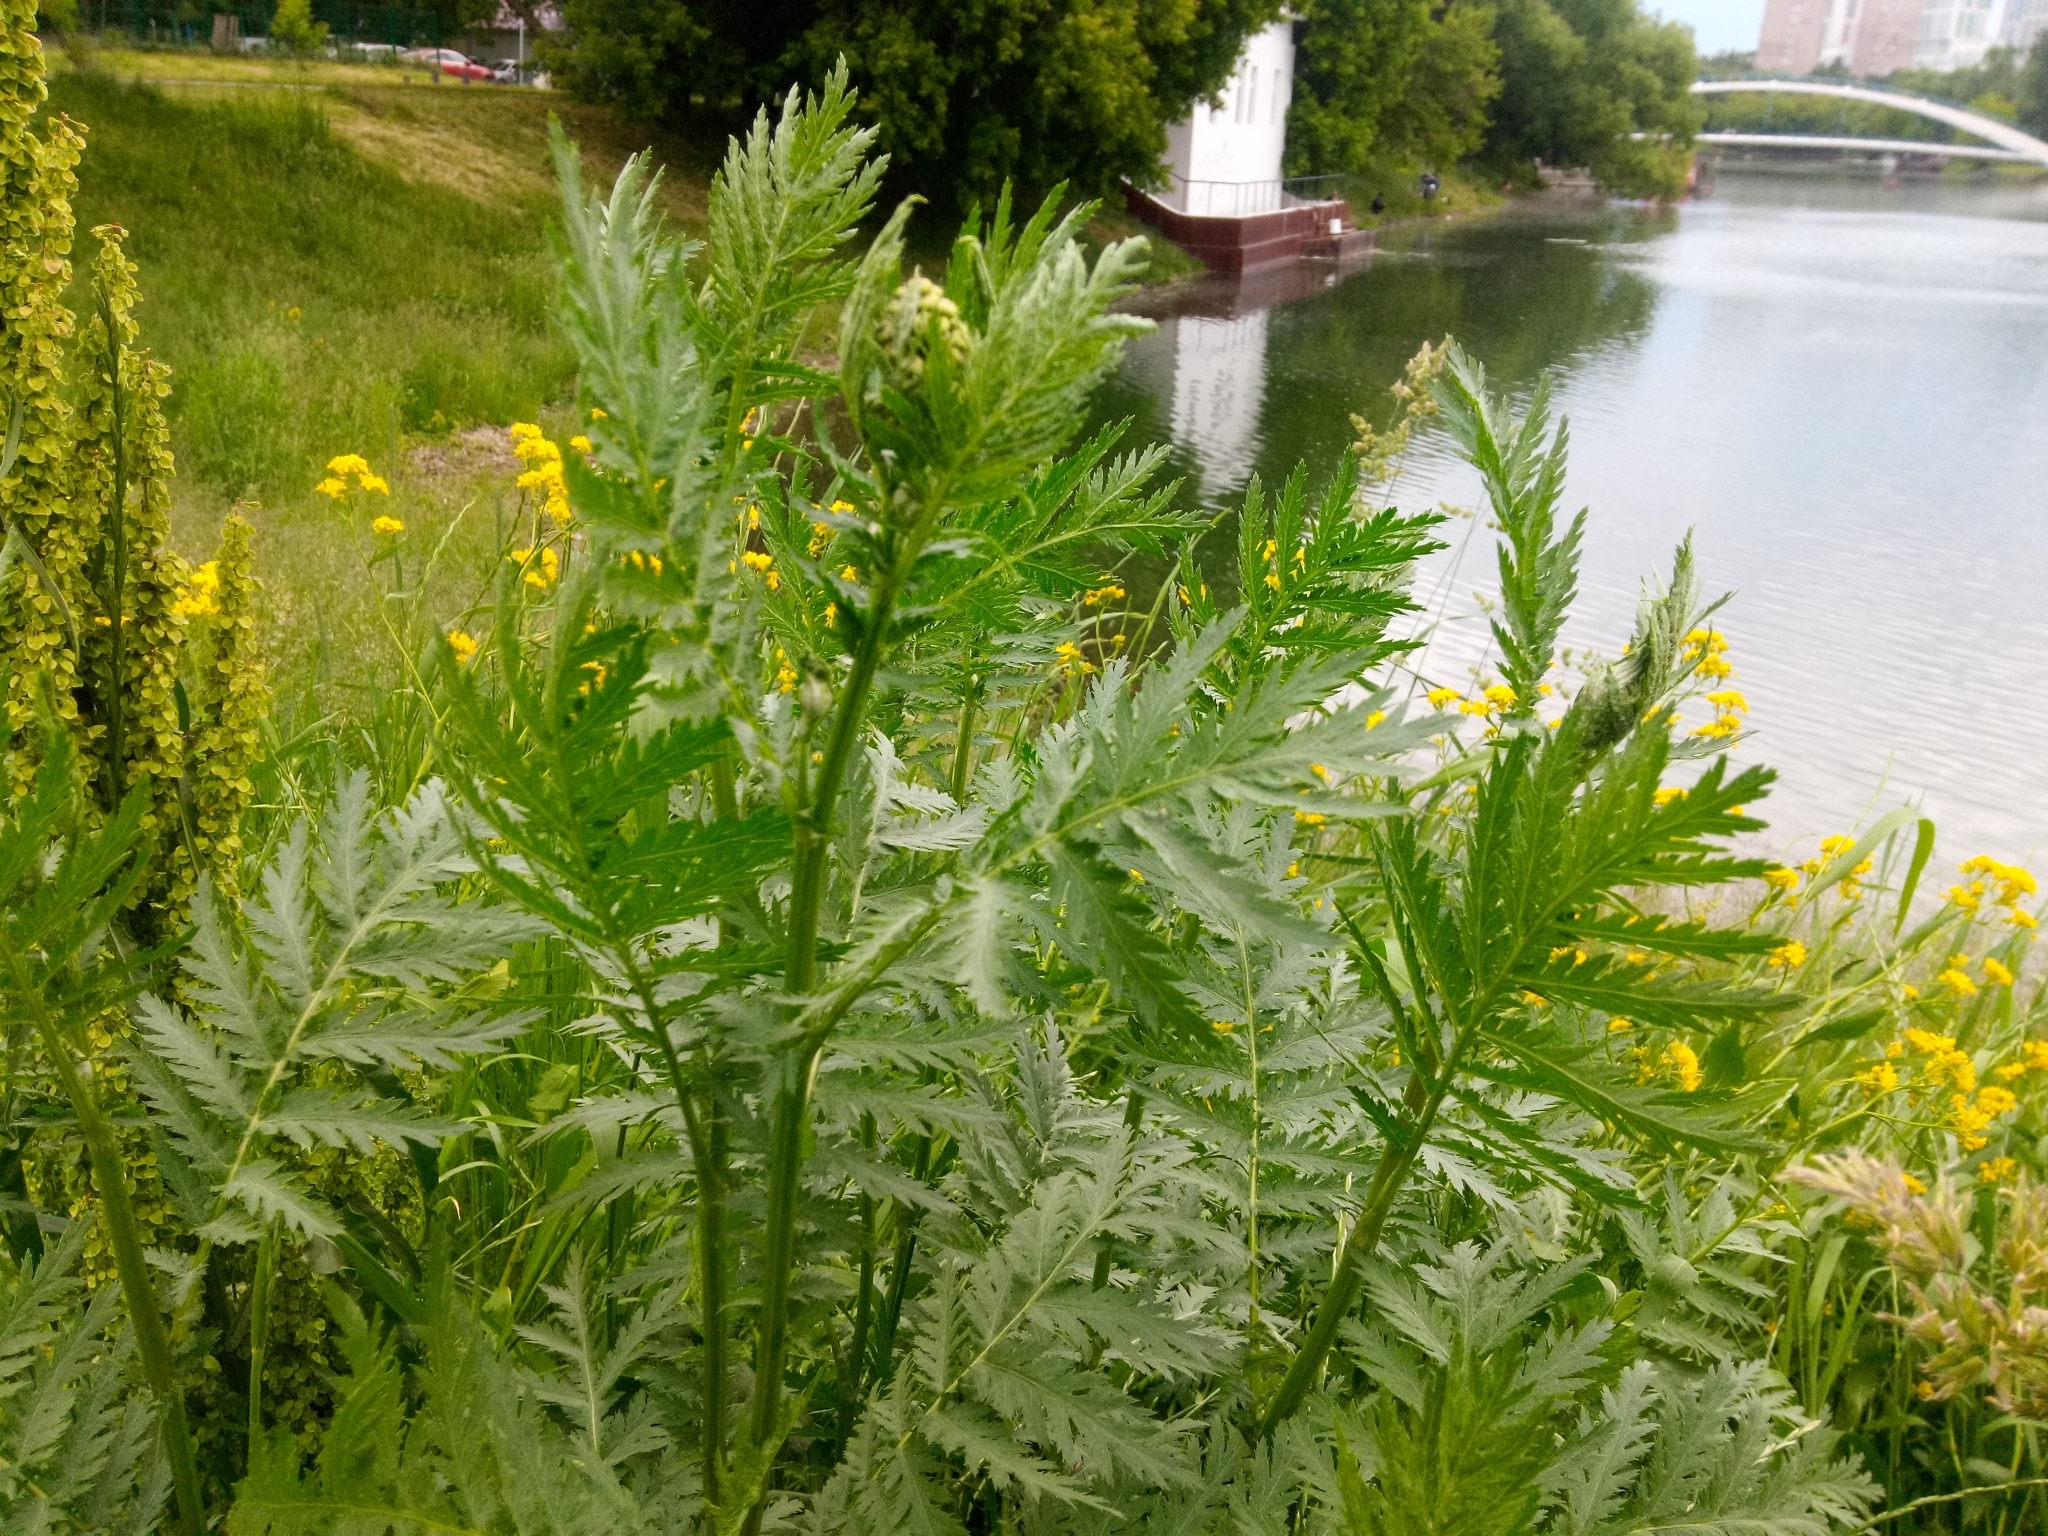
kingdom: Plantae
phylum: Tracheophyta
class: Magnoliopsida
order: Asterales
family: Asteraceae
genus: Tanacetum
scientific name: Tanacetum vulgare
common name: Common tansy
